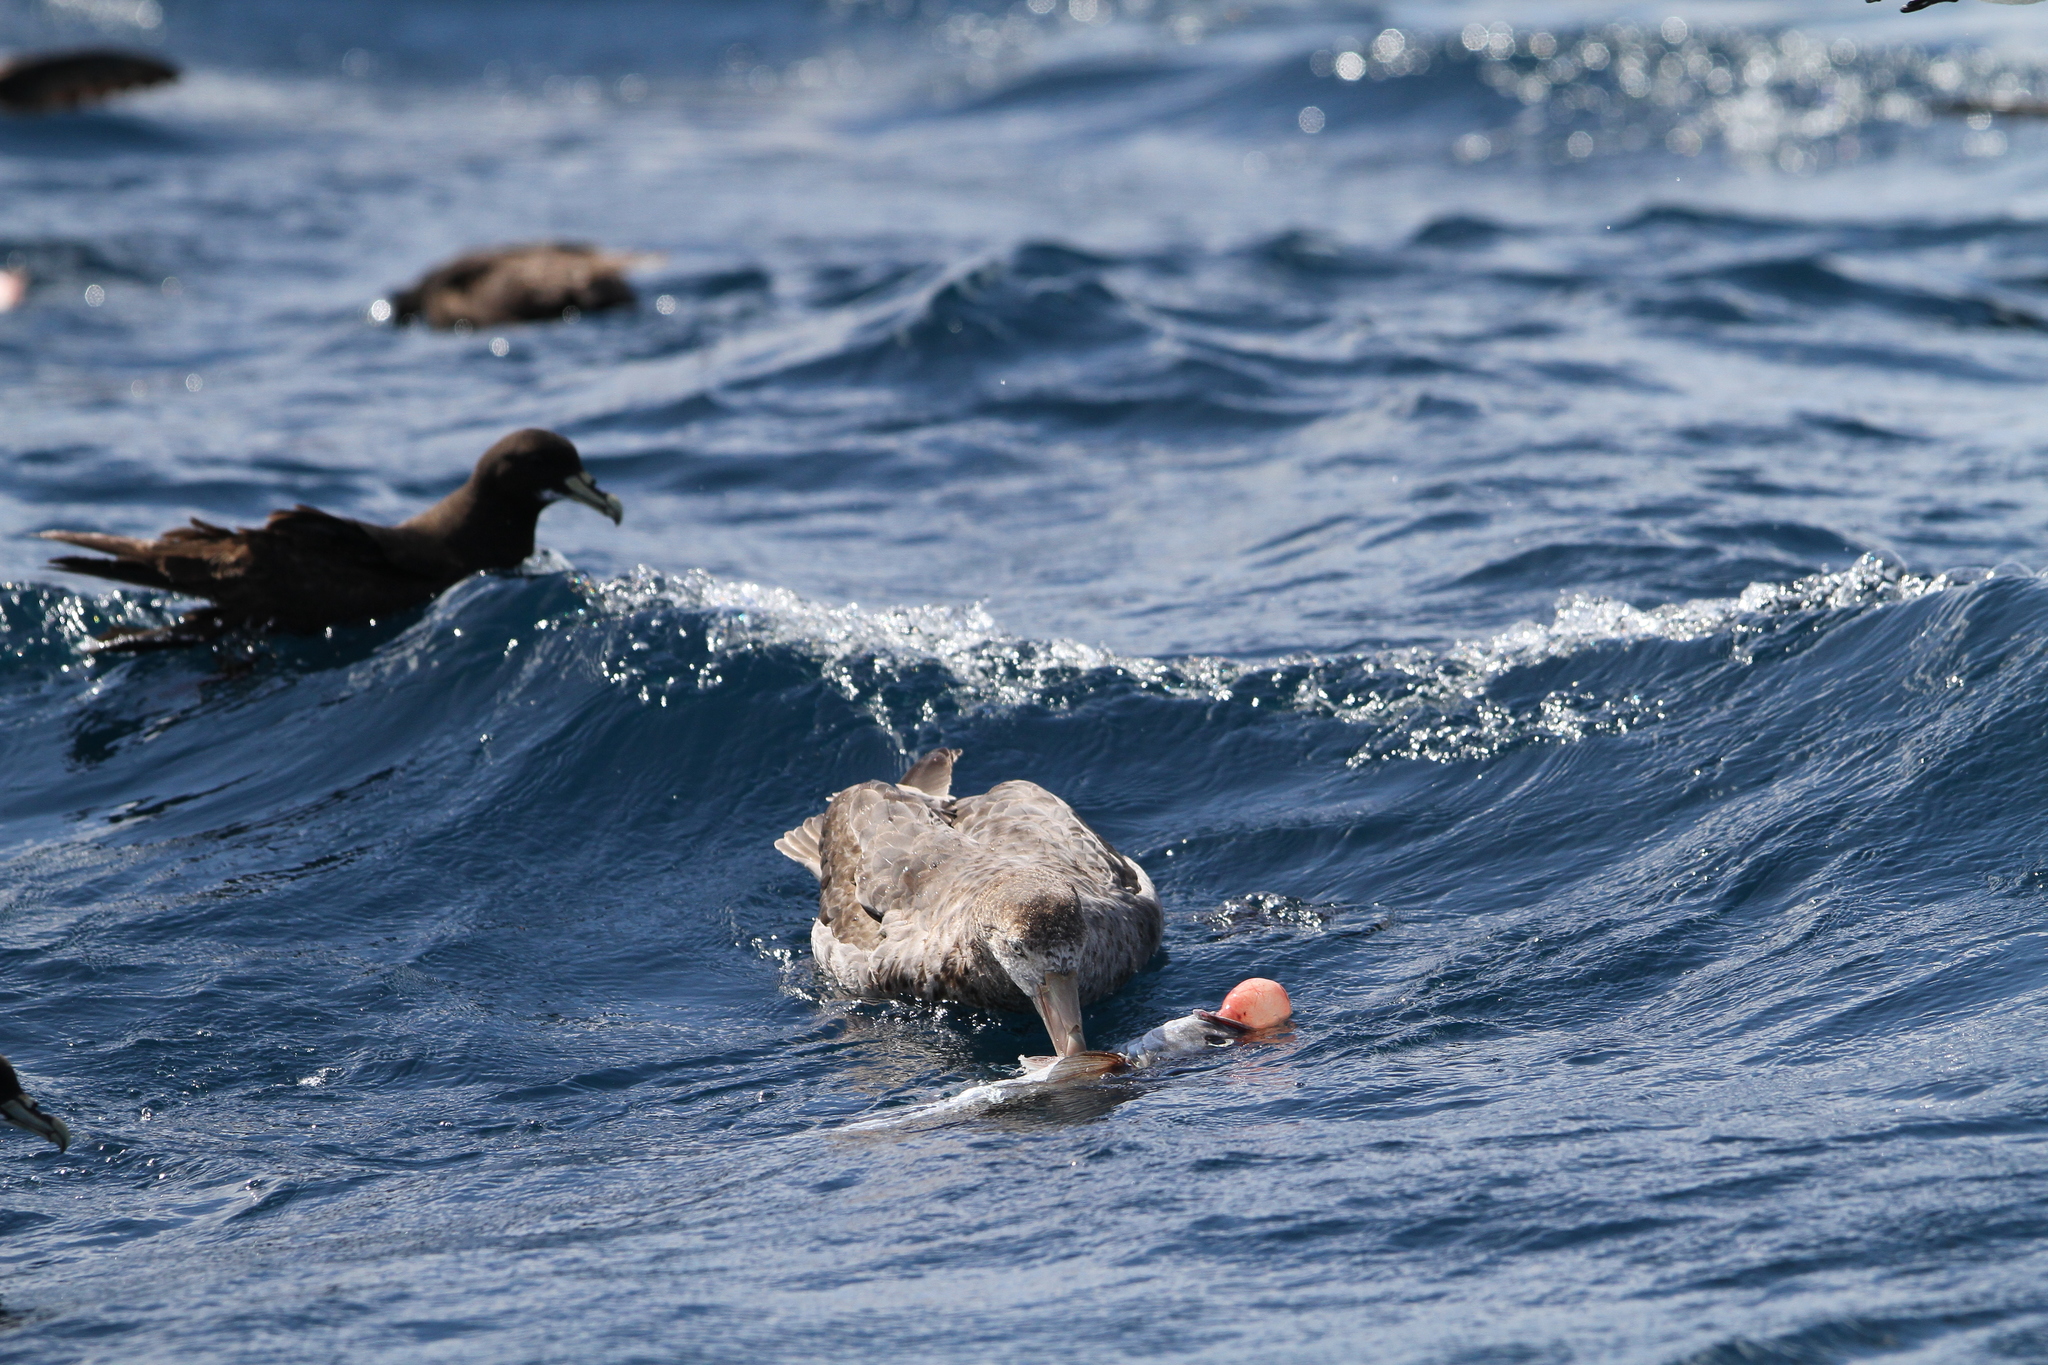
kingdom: Animalia
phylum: Chordata
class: Aves
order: Procellariiformes
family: Procellariidae
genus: Macronectes
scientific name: Macronectes halli
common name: Northern giant petrel
